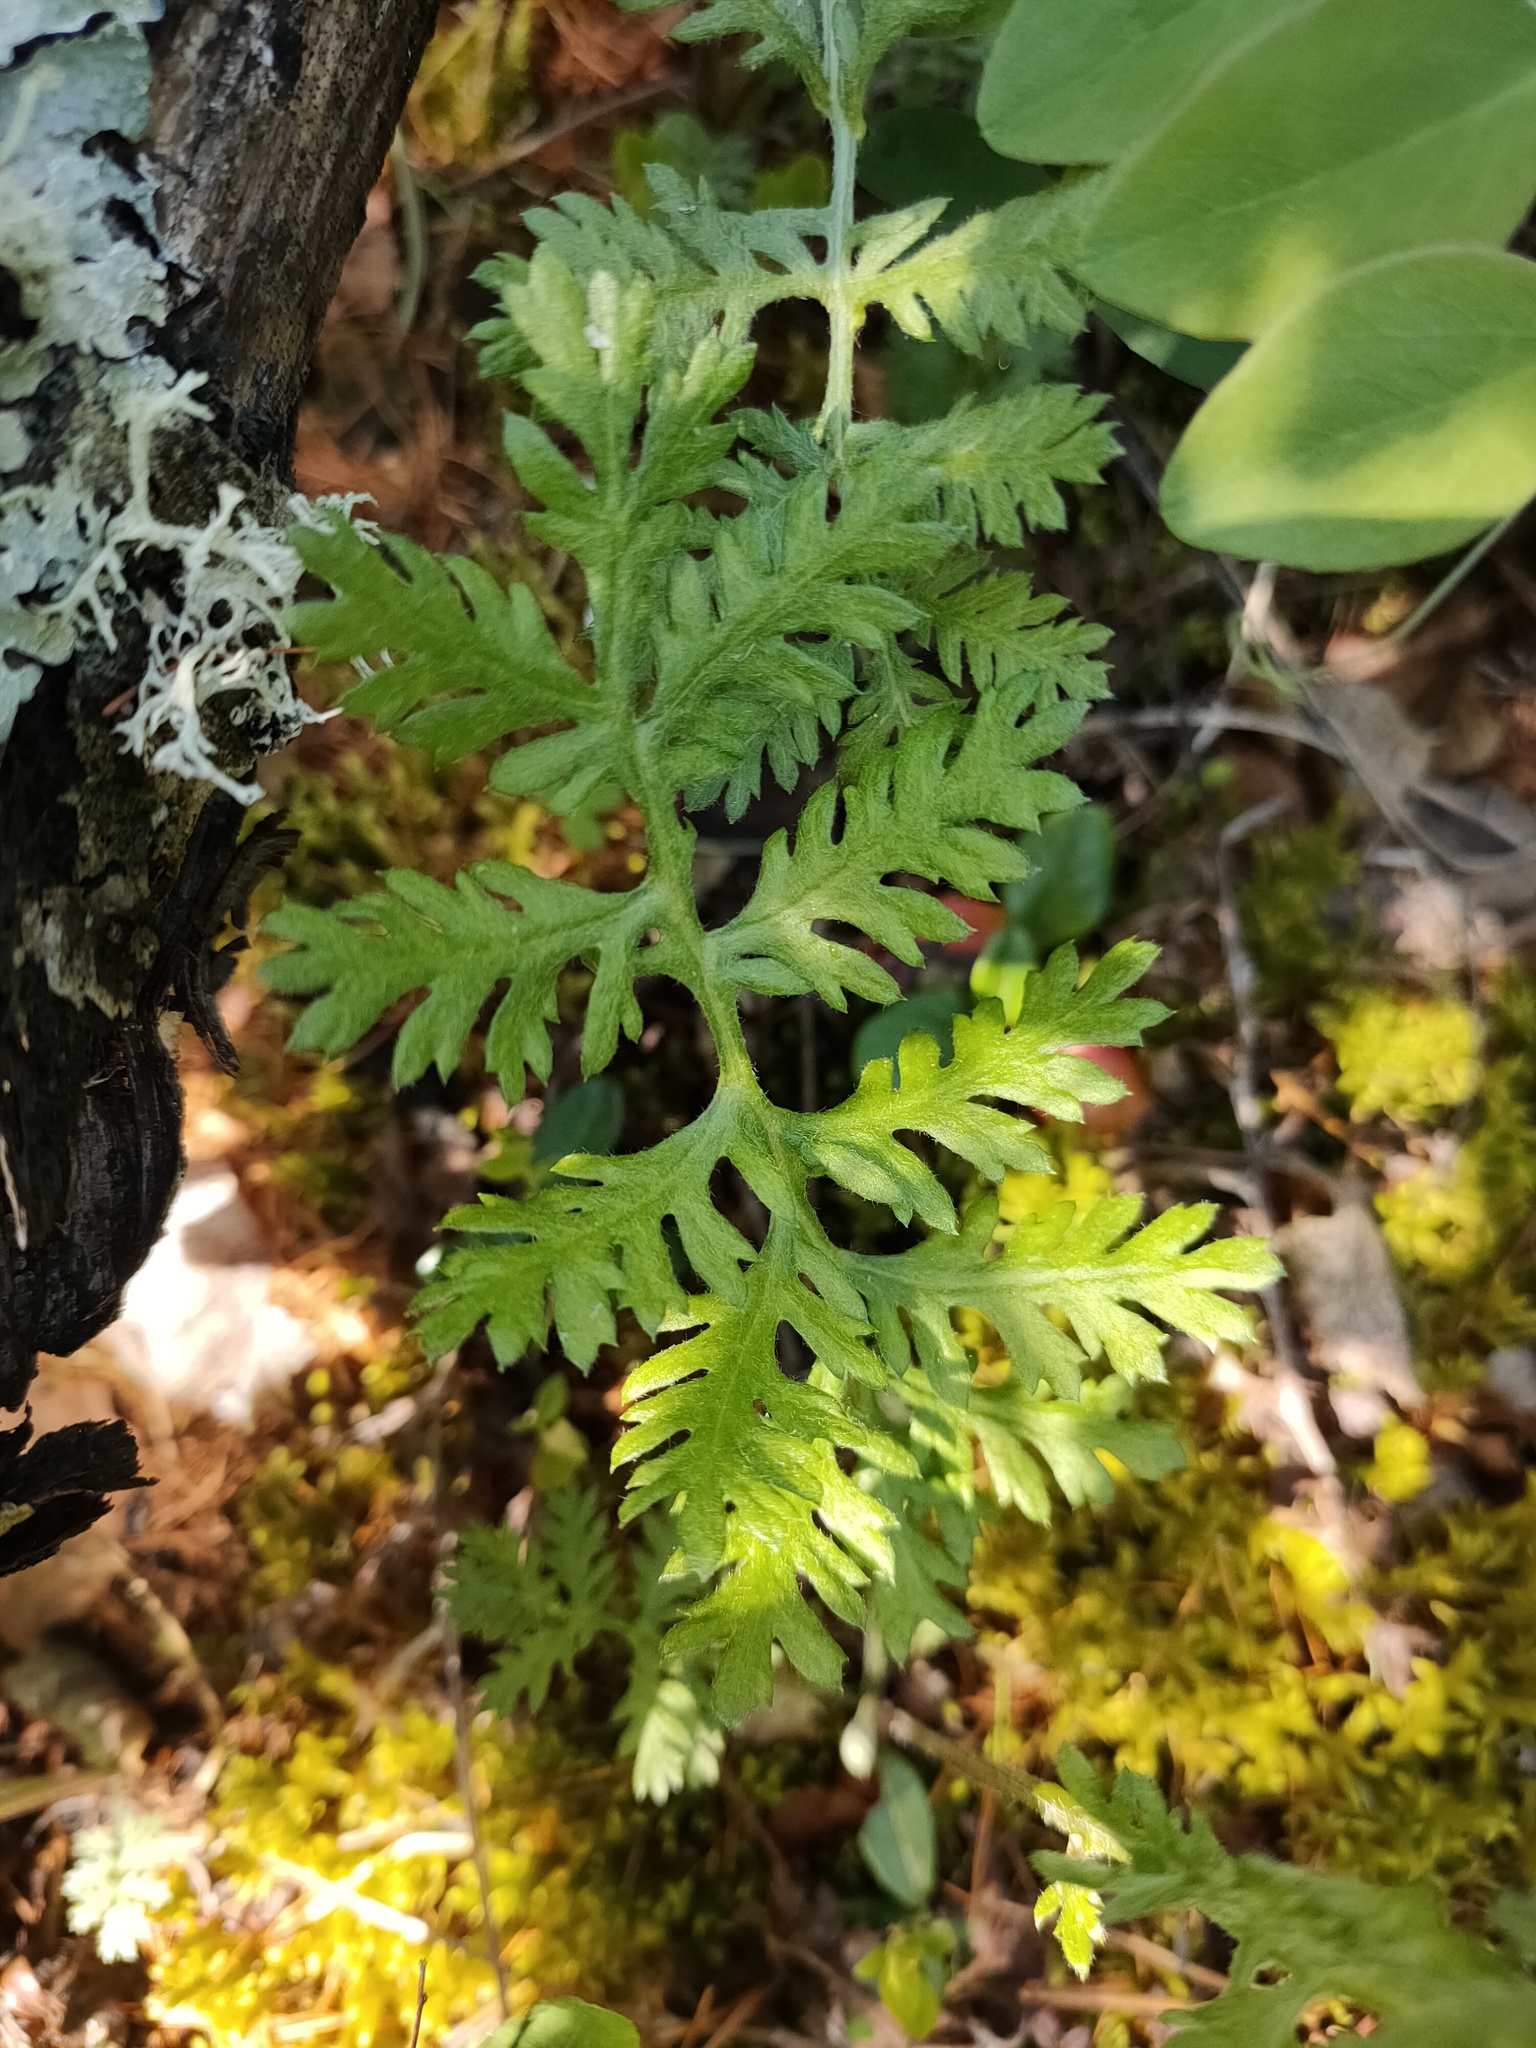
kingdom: Plantae
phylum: Tracheophyta
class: Magnoliopsida
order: Asterales
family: Asteraceae
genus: Artemisia
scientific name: Artemisia tanacetifolia
